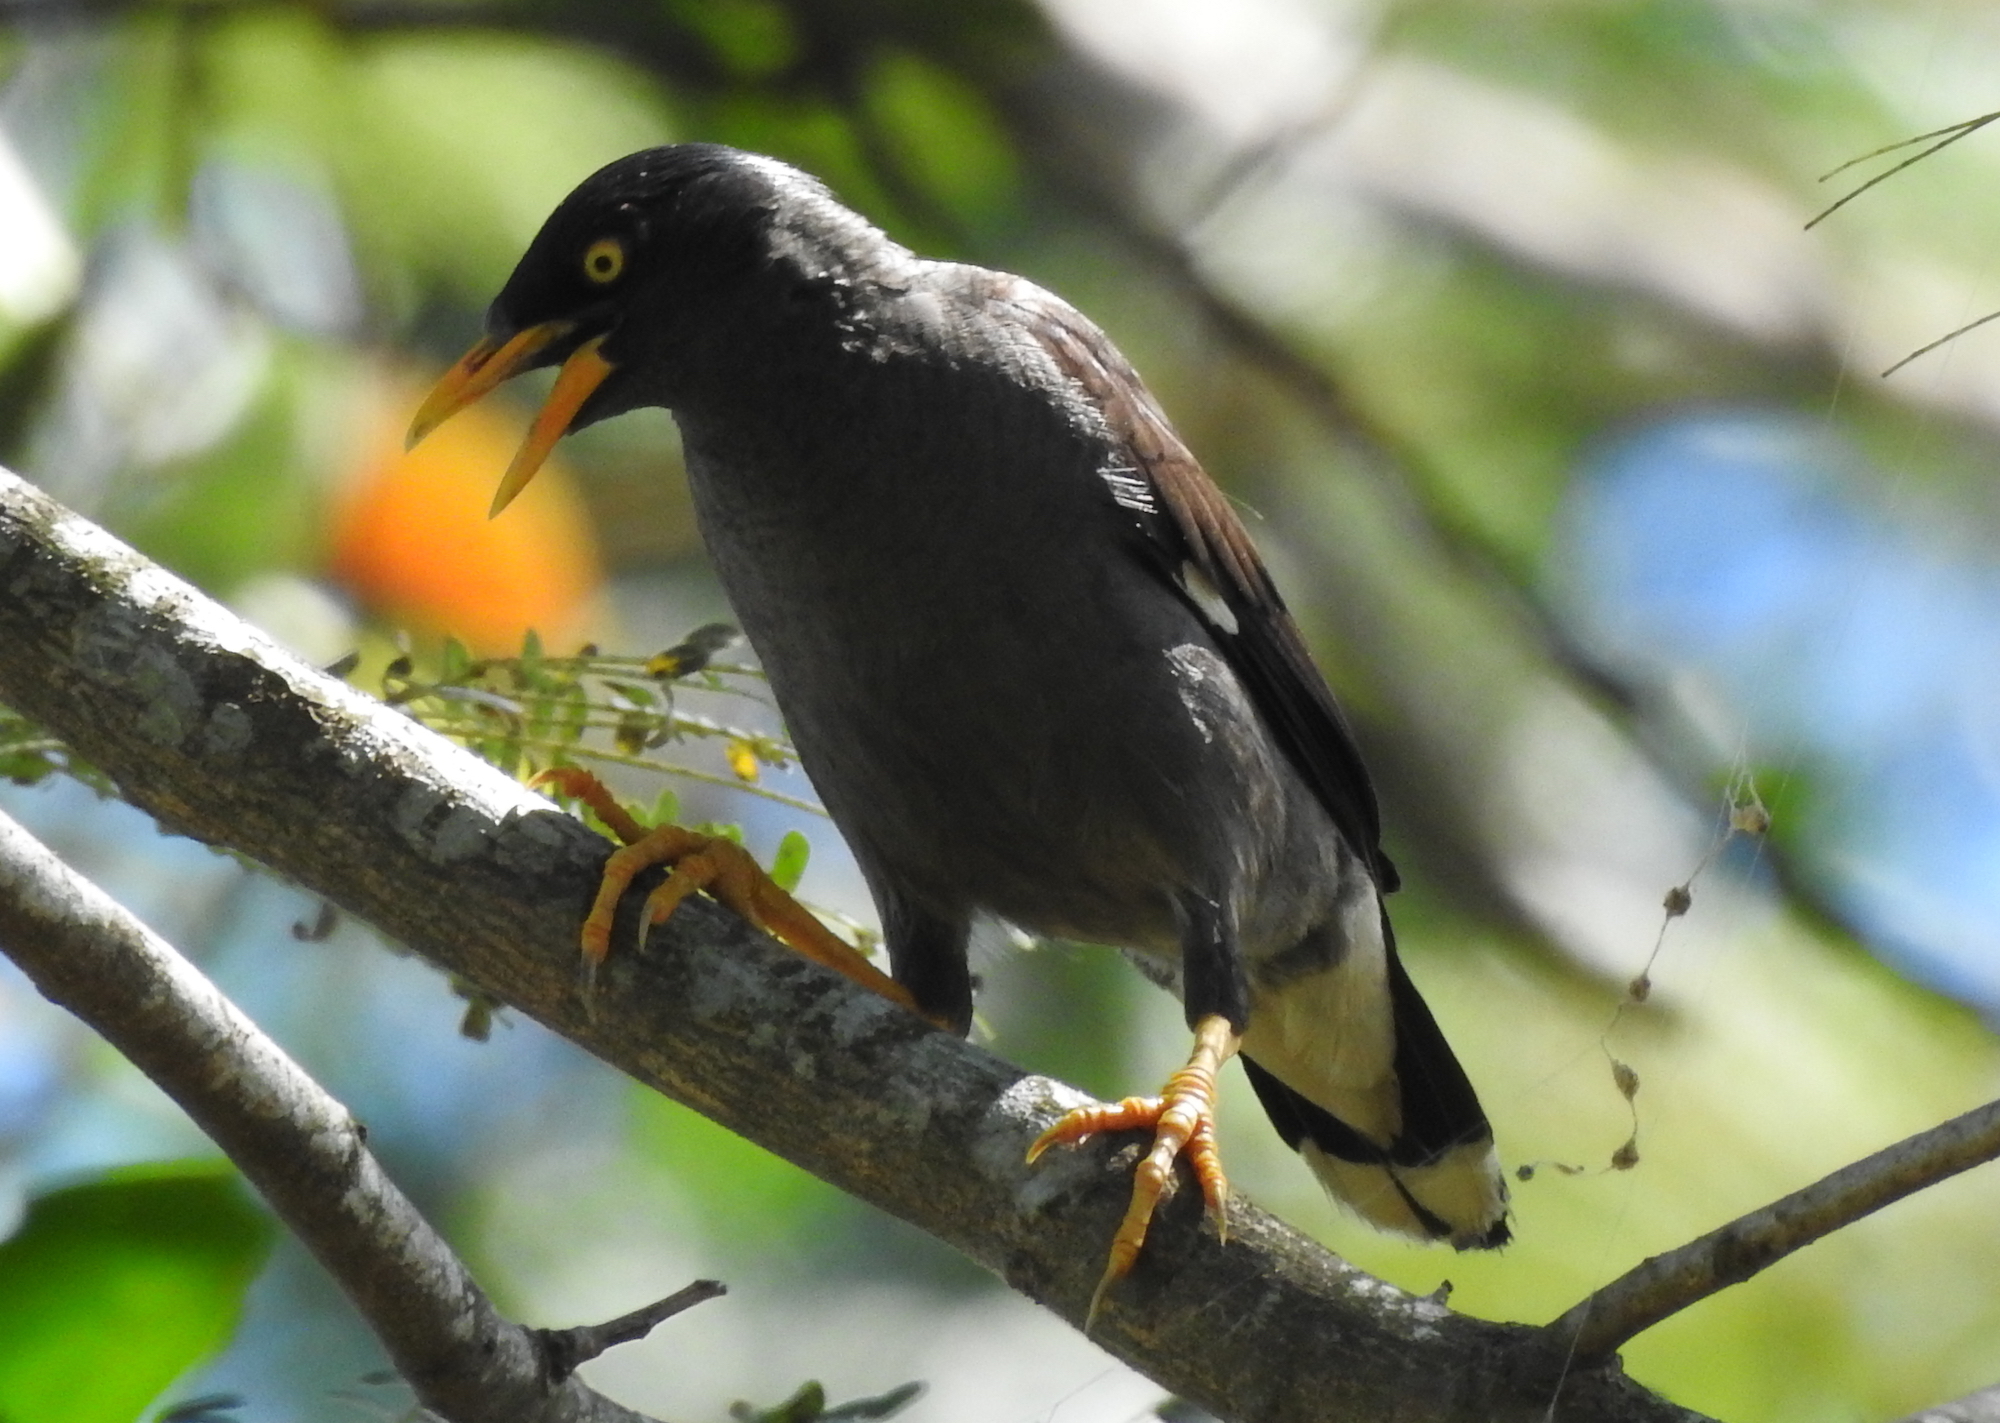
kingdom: Animalia
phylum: Chordata
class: Aves
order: Passeriformes
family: Sturnidae
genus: Acridotheres
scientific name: Acridotheres javanicus
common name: Javan myna
